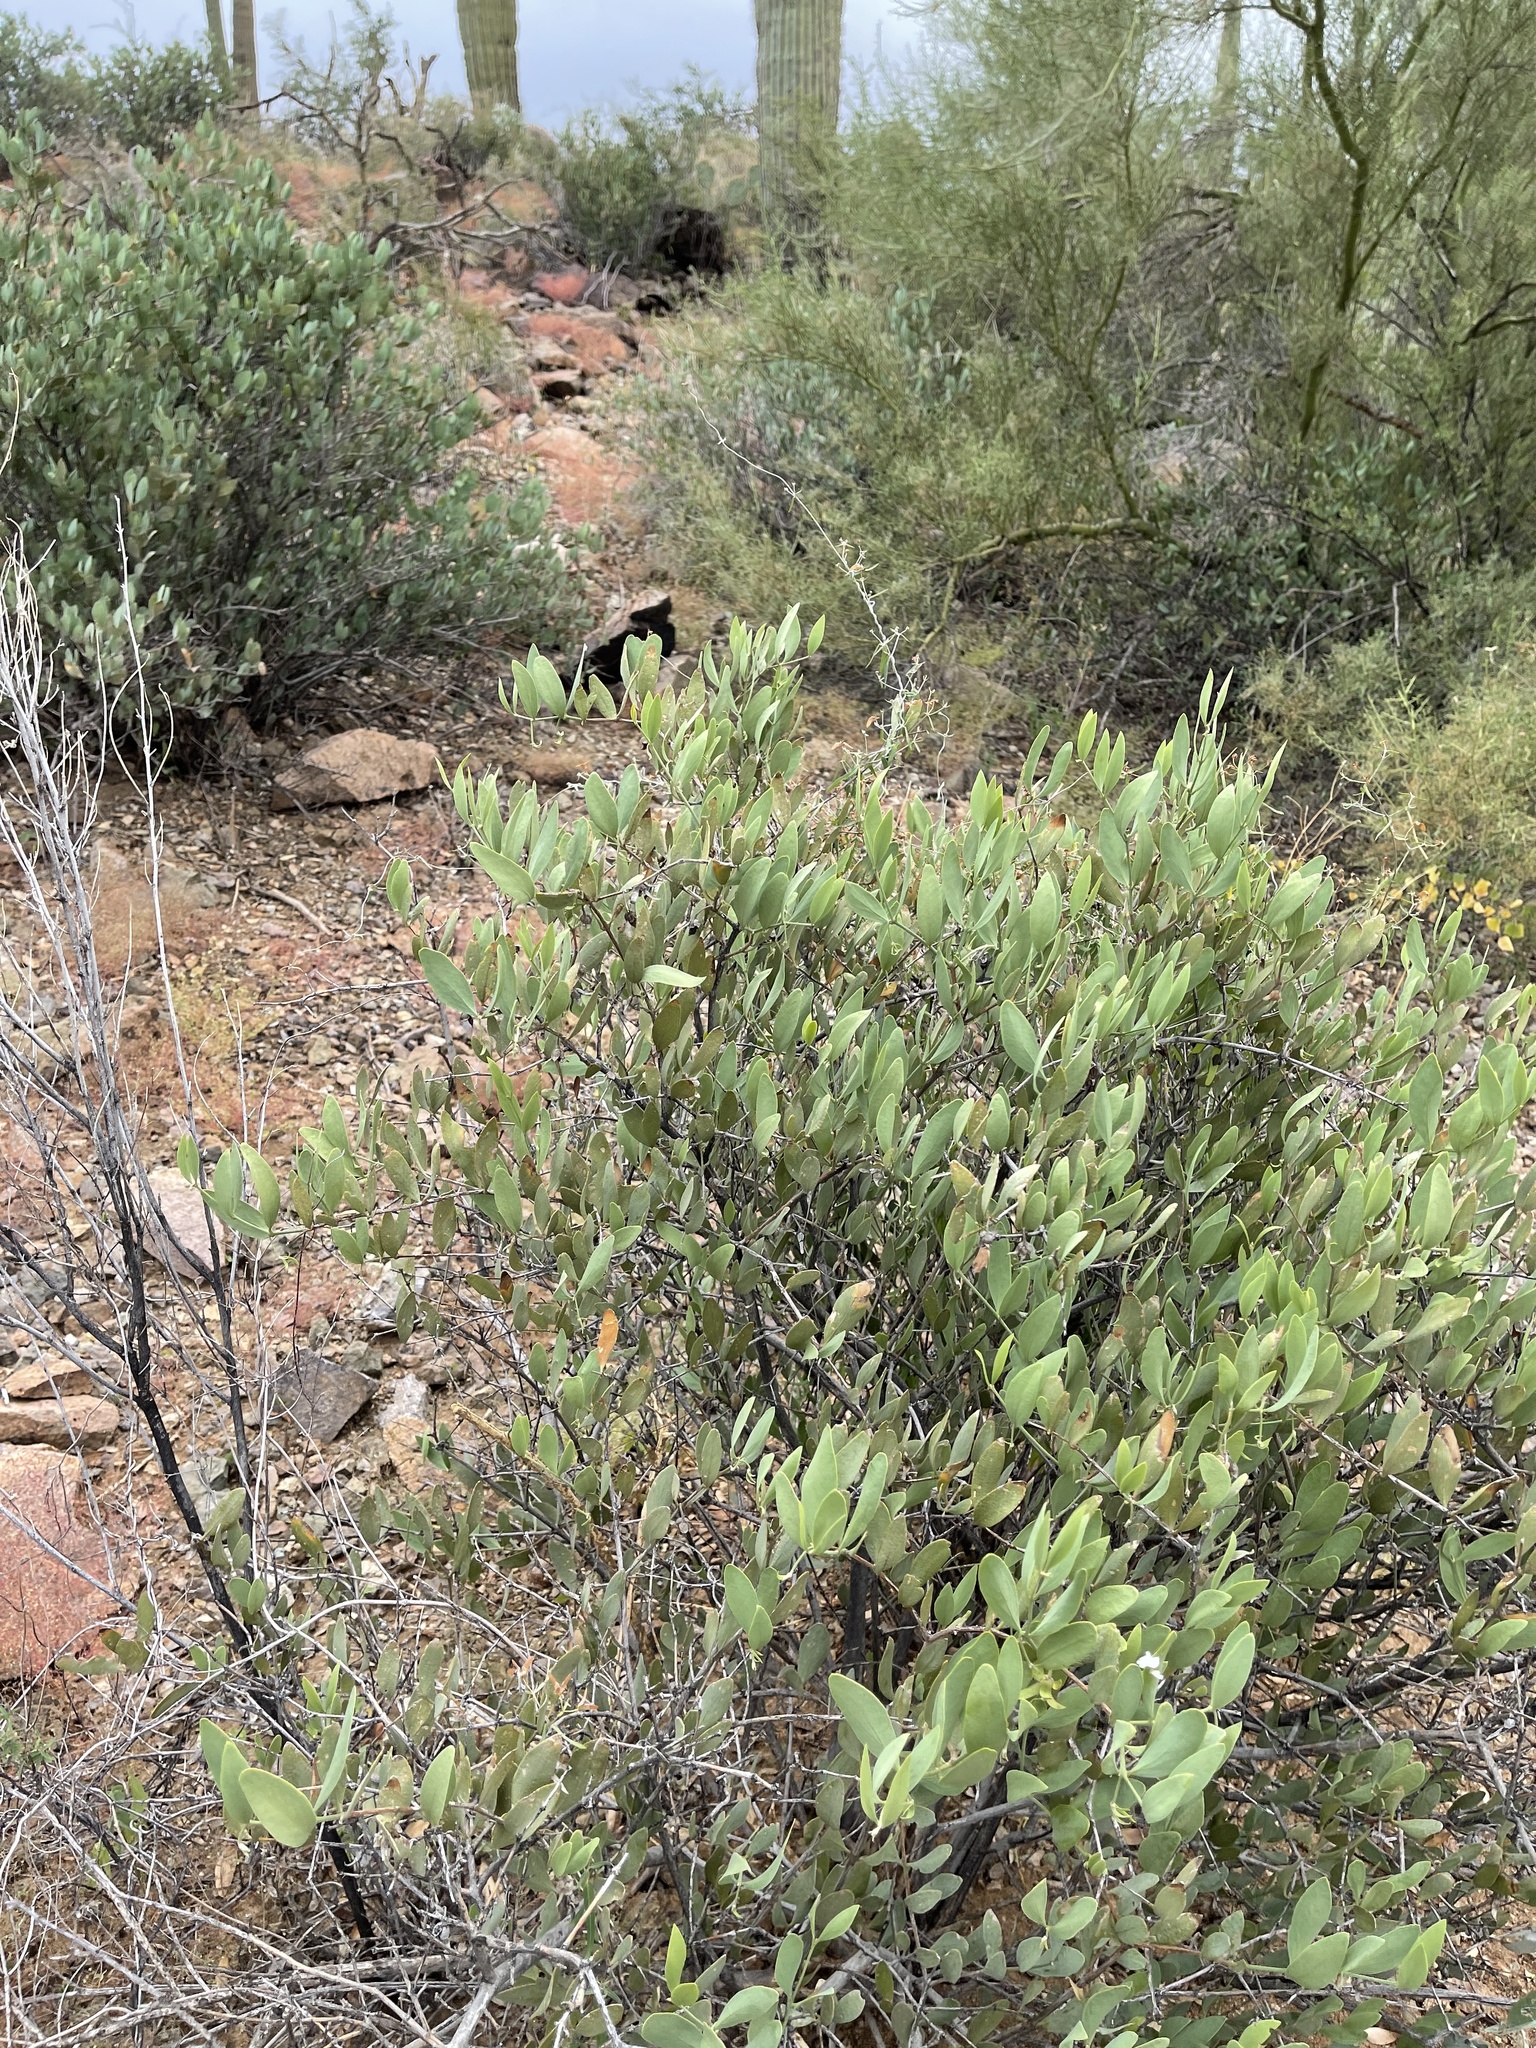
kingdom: Plantae
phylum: Tracheophyta
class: Magnoliopsida
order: Caryophyllales
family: Simmondsiaceae
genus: Simmondsia
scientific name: Simmondsia chinensis
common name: Jojoba
